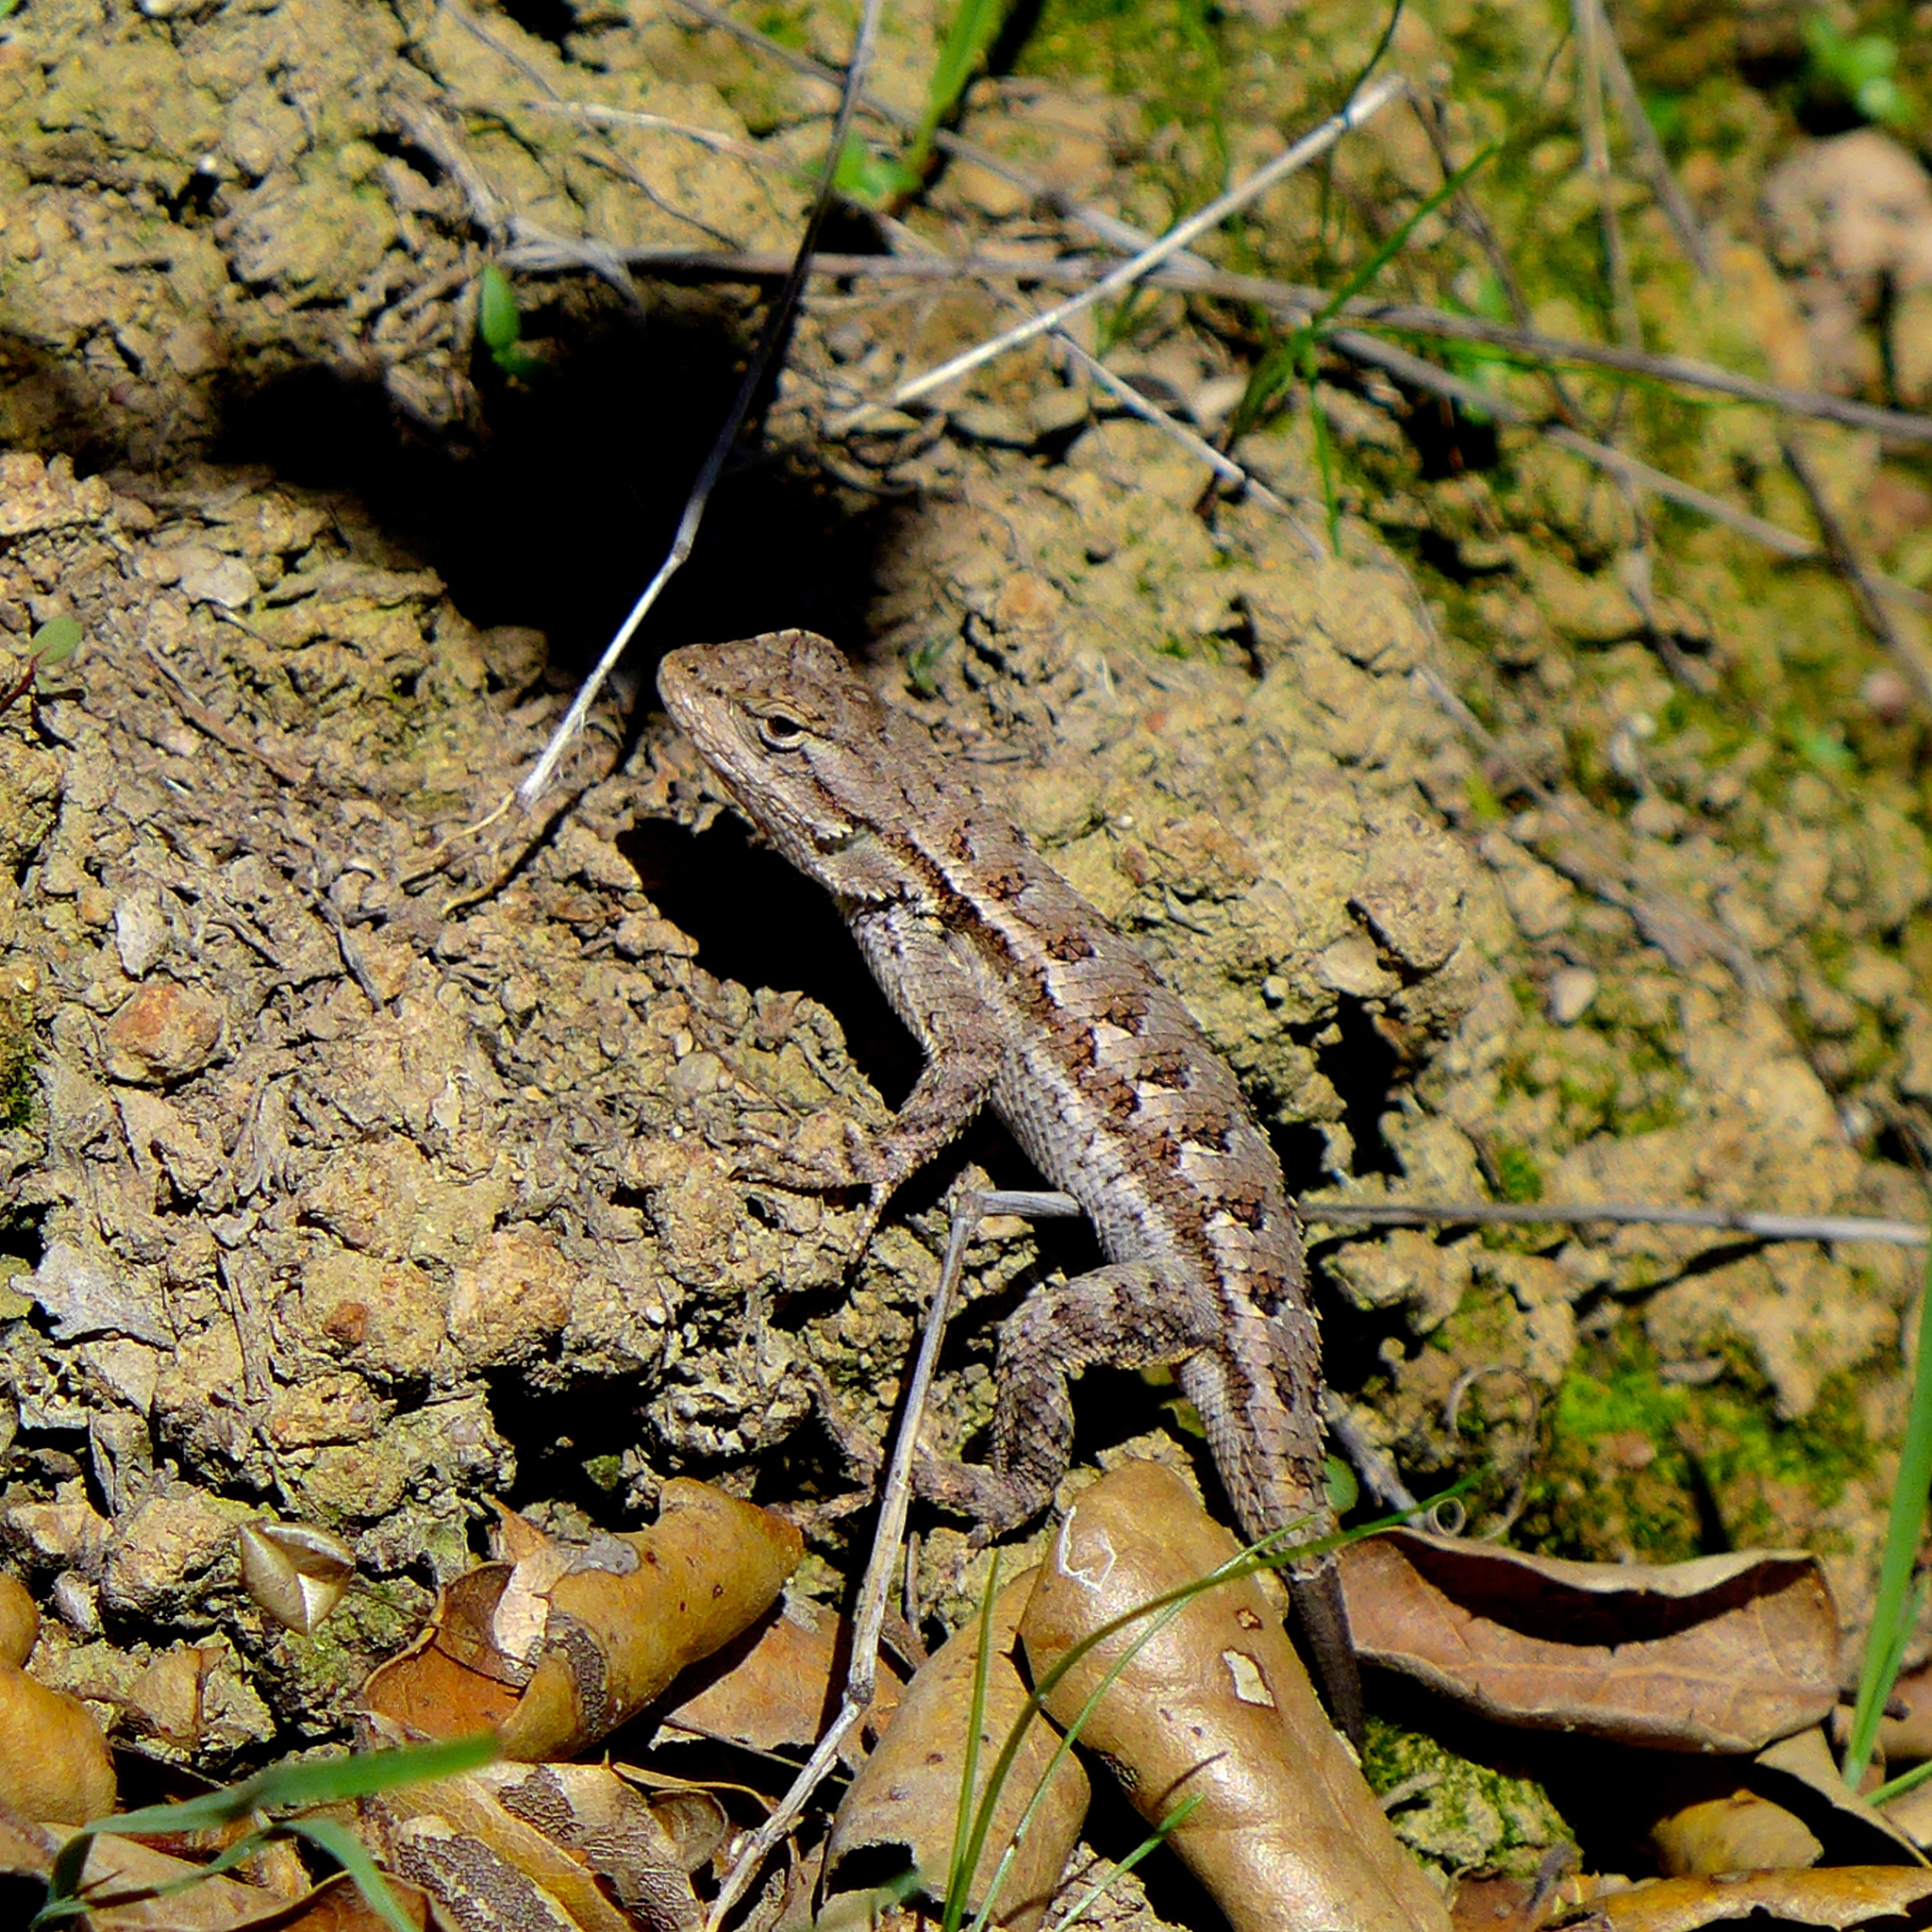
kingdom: Animalia
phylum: Chordata
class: Squamata
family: Phrynosomatidae
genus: Sceloporus
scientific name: Sceloporus occidentalis
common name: Western fence lizard
